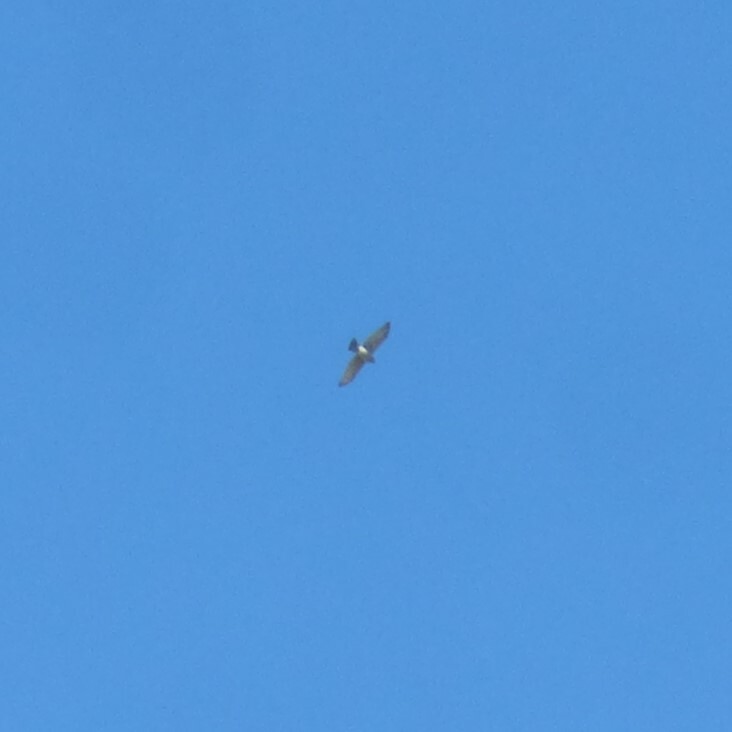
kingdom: Animalia
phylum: Chordata
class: Aves
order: Accipitriformes
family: Accipitridae
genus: Accipiter
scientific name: Accipiter cooperii
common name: Cooper's hawk
